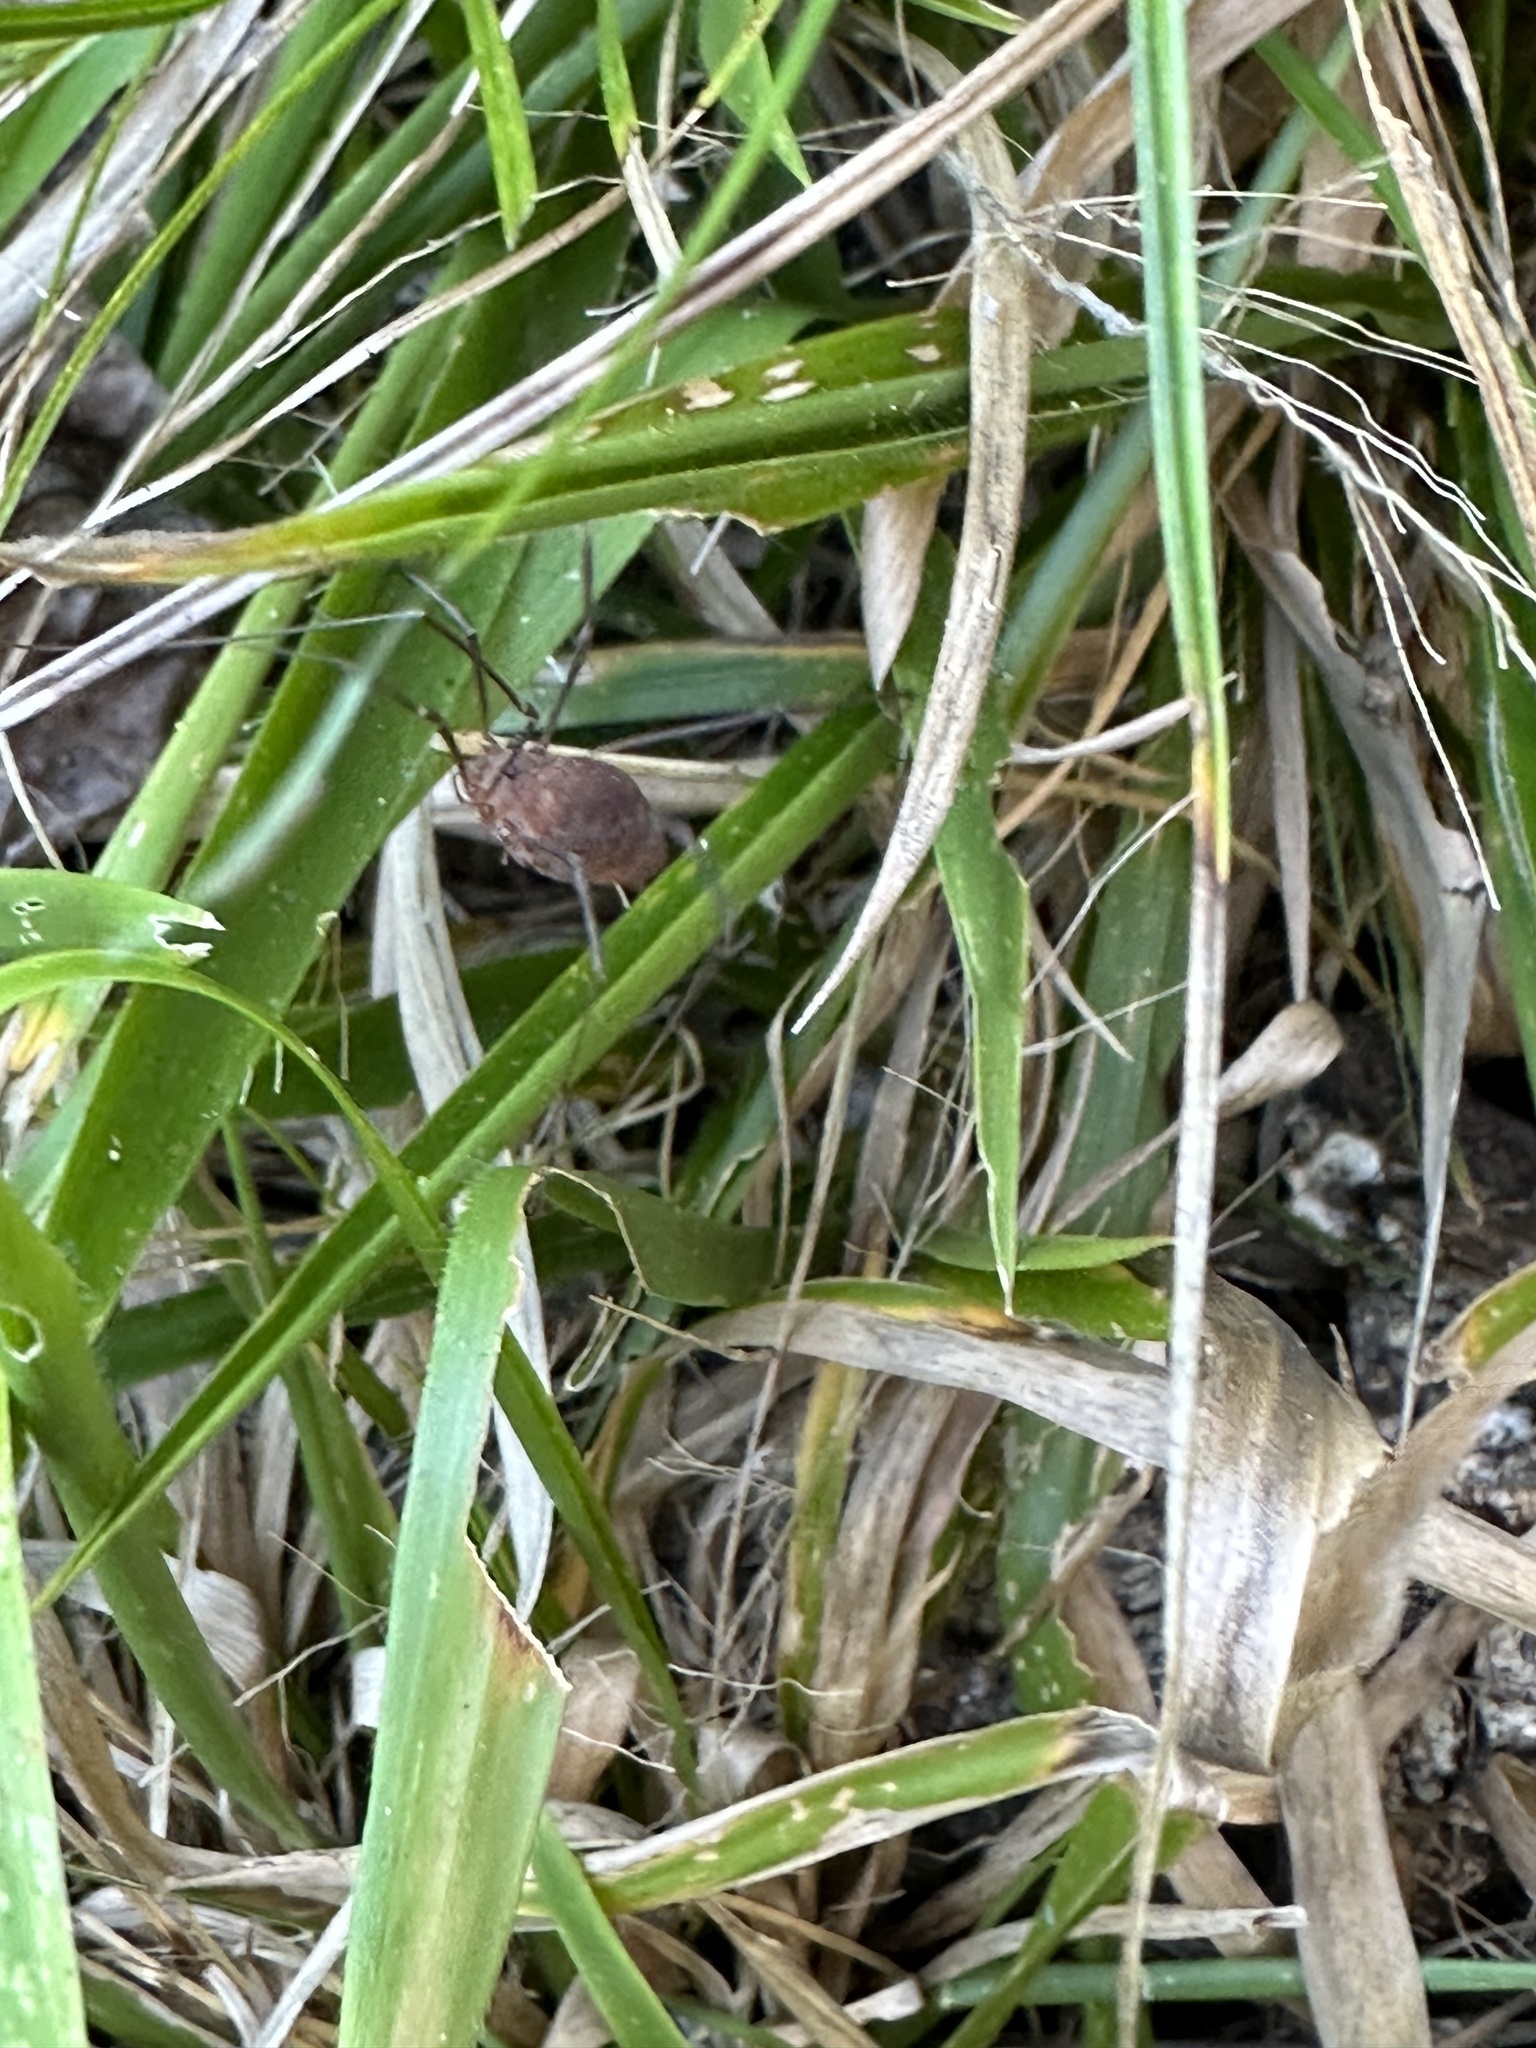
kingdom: Animalia
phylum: Arthropoda
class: Arachnida
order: Opiliones
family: Sclerosomatidae
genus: Hadrobunus
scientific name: Hadrobunus grandis
